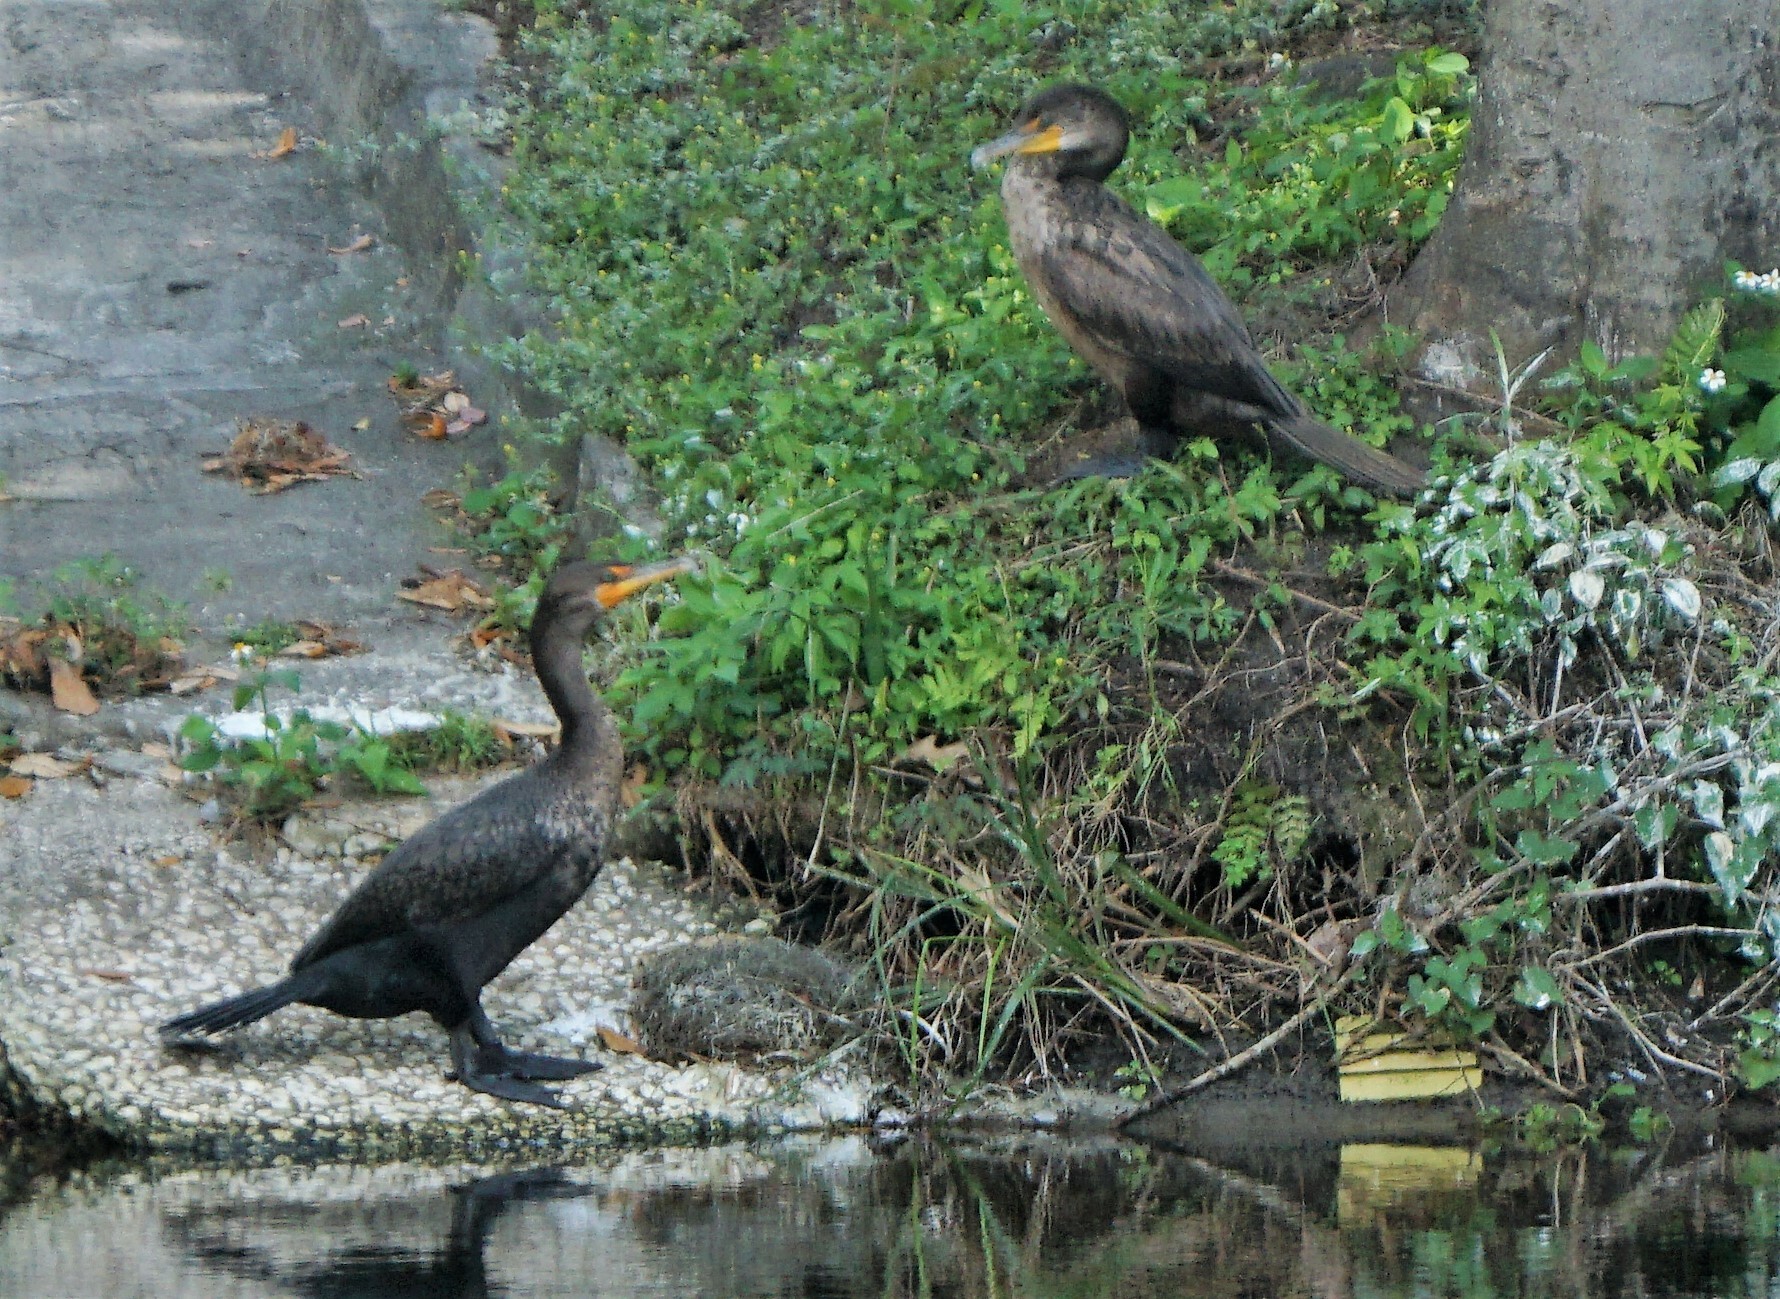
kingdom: Animalia
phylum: Chordata
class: Aves
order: Suliformes
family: Phalacrocoracidae
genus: Phalacrocorax
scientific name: Phalacrocorax auritus
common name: Double-crested cormorant
